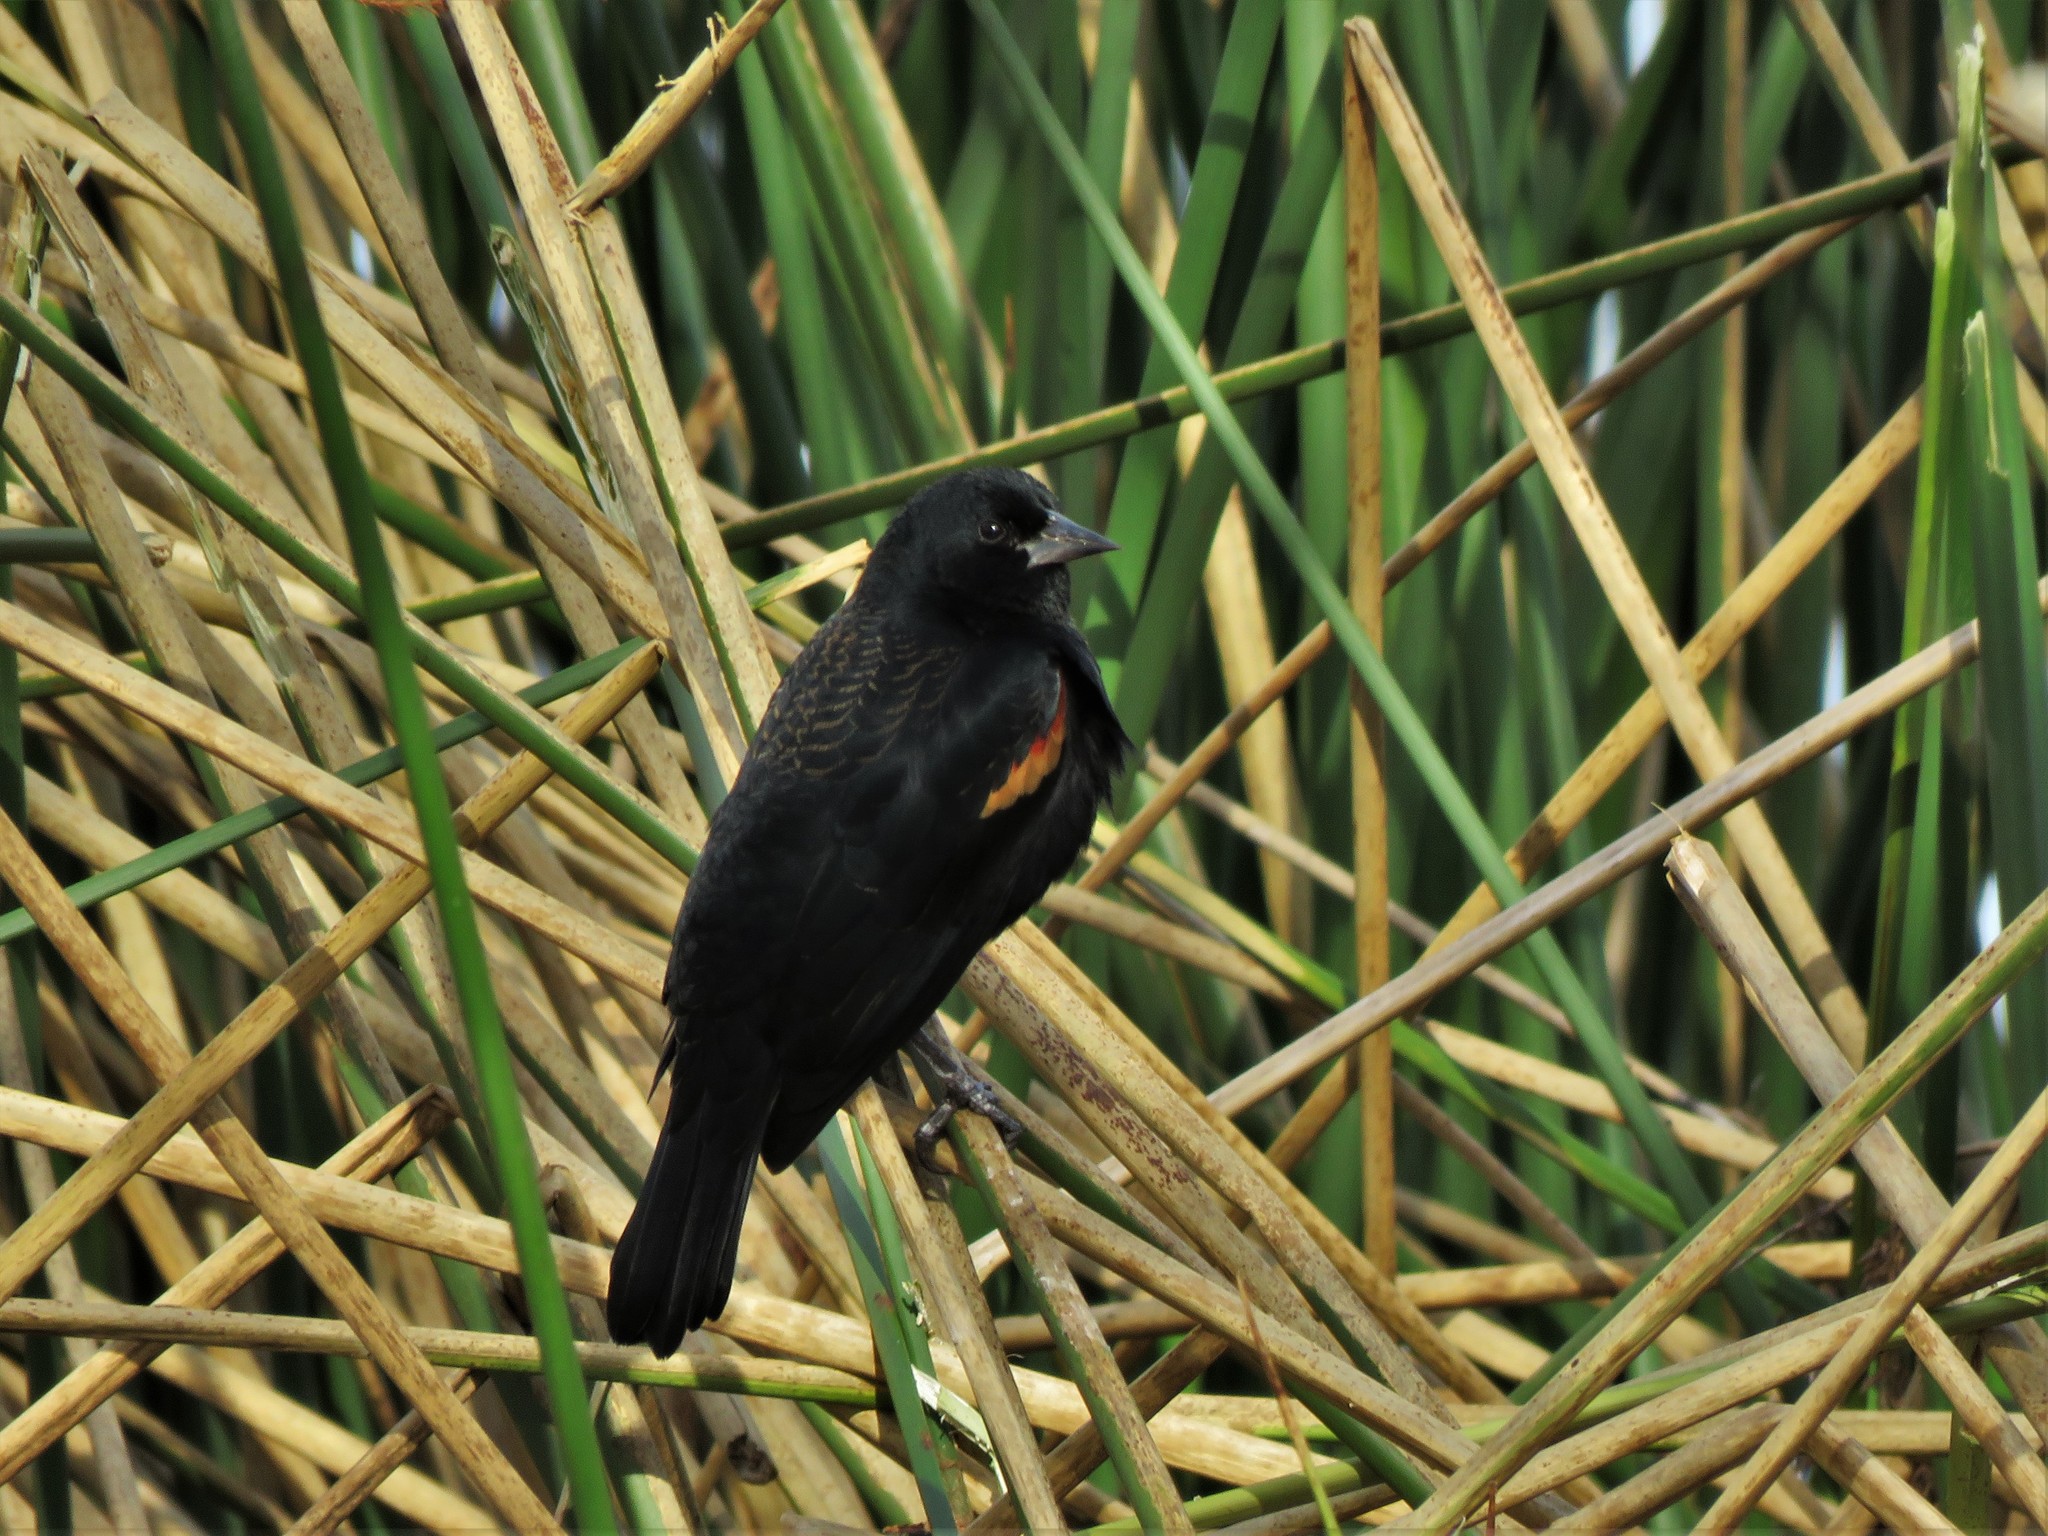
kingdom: Animalia
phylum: Chordata
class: Aves
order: Passeriformes
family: Icteridae
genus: Agelaius
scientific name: Agelaius phoeniceus
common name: Red-winged blackbird
